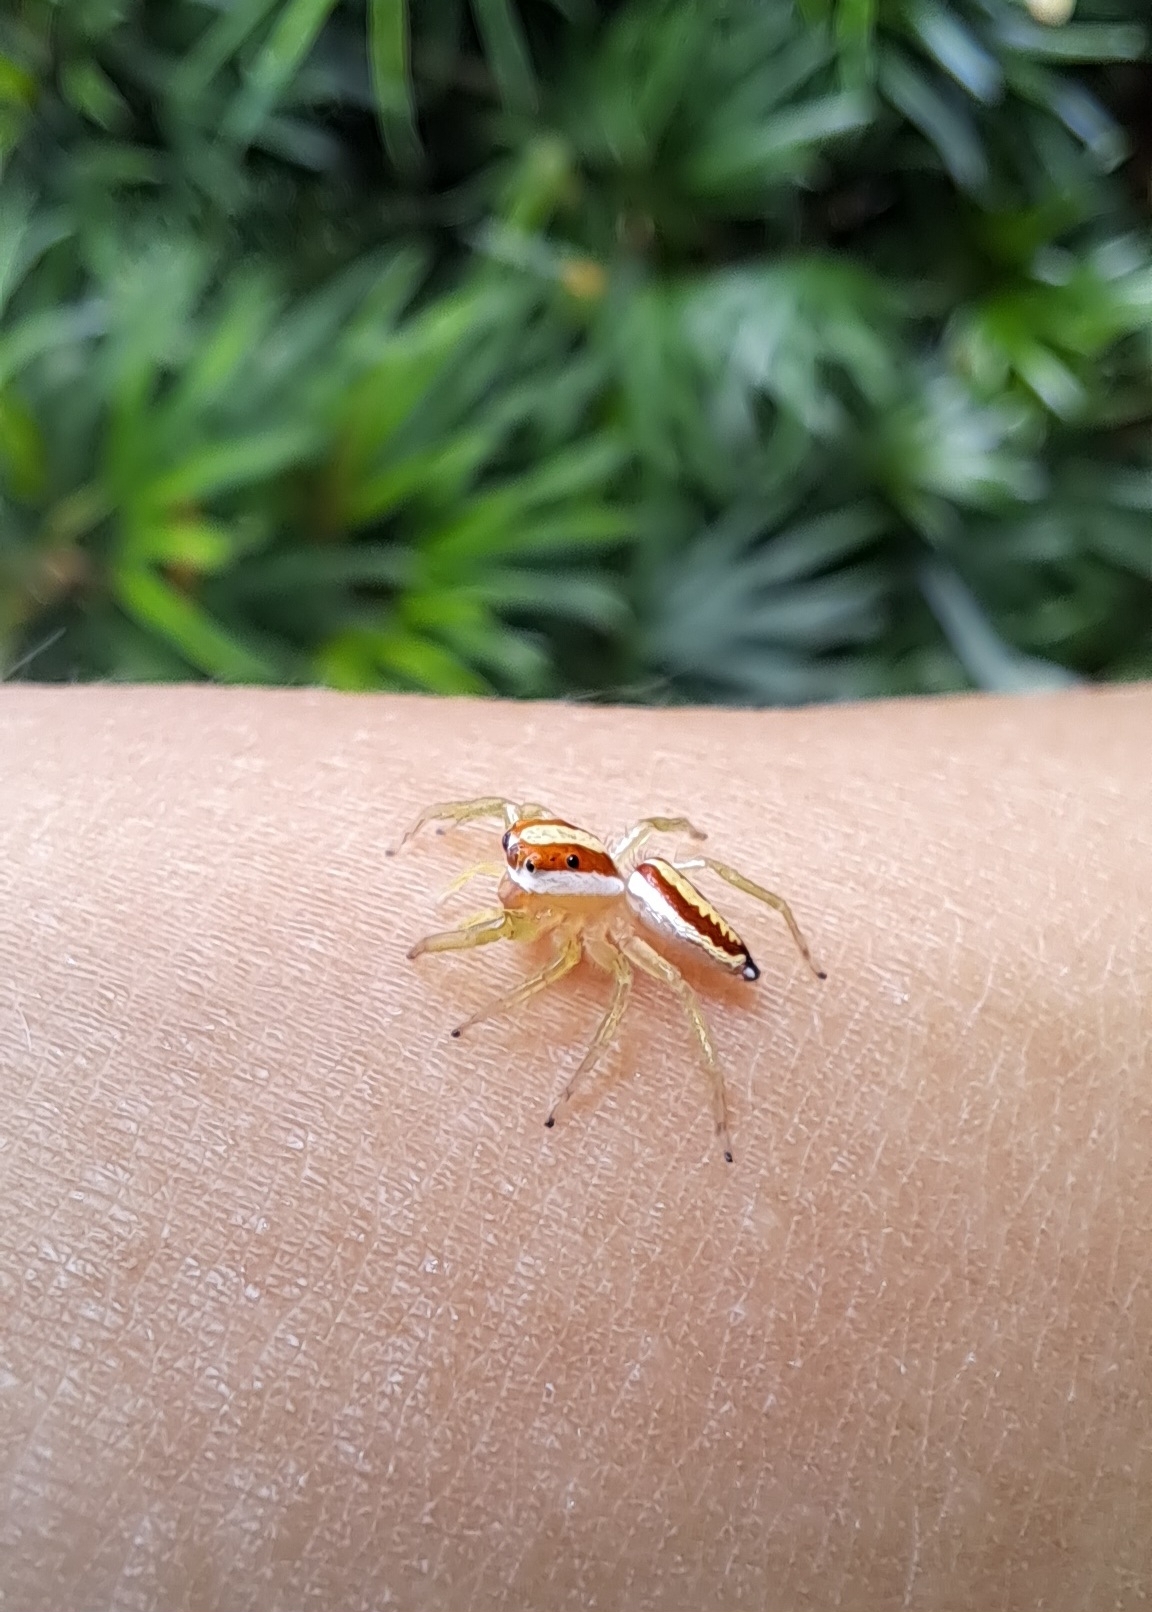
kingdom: Animalia
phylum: Arthropoda
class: Arachnida
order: Araneae
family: Salticidae
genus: Epocilla
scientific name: Epocilla calcarata
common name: Jumping spider
